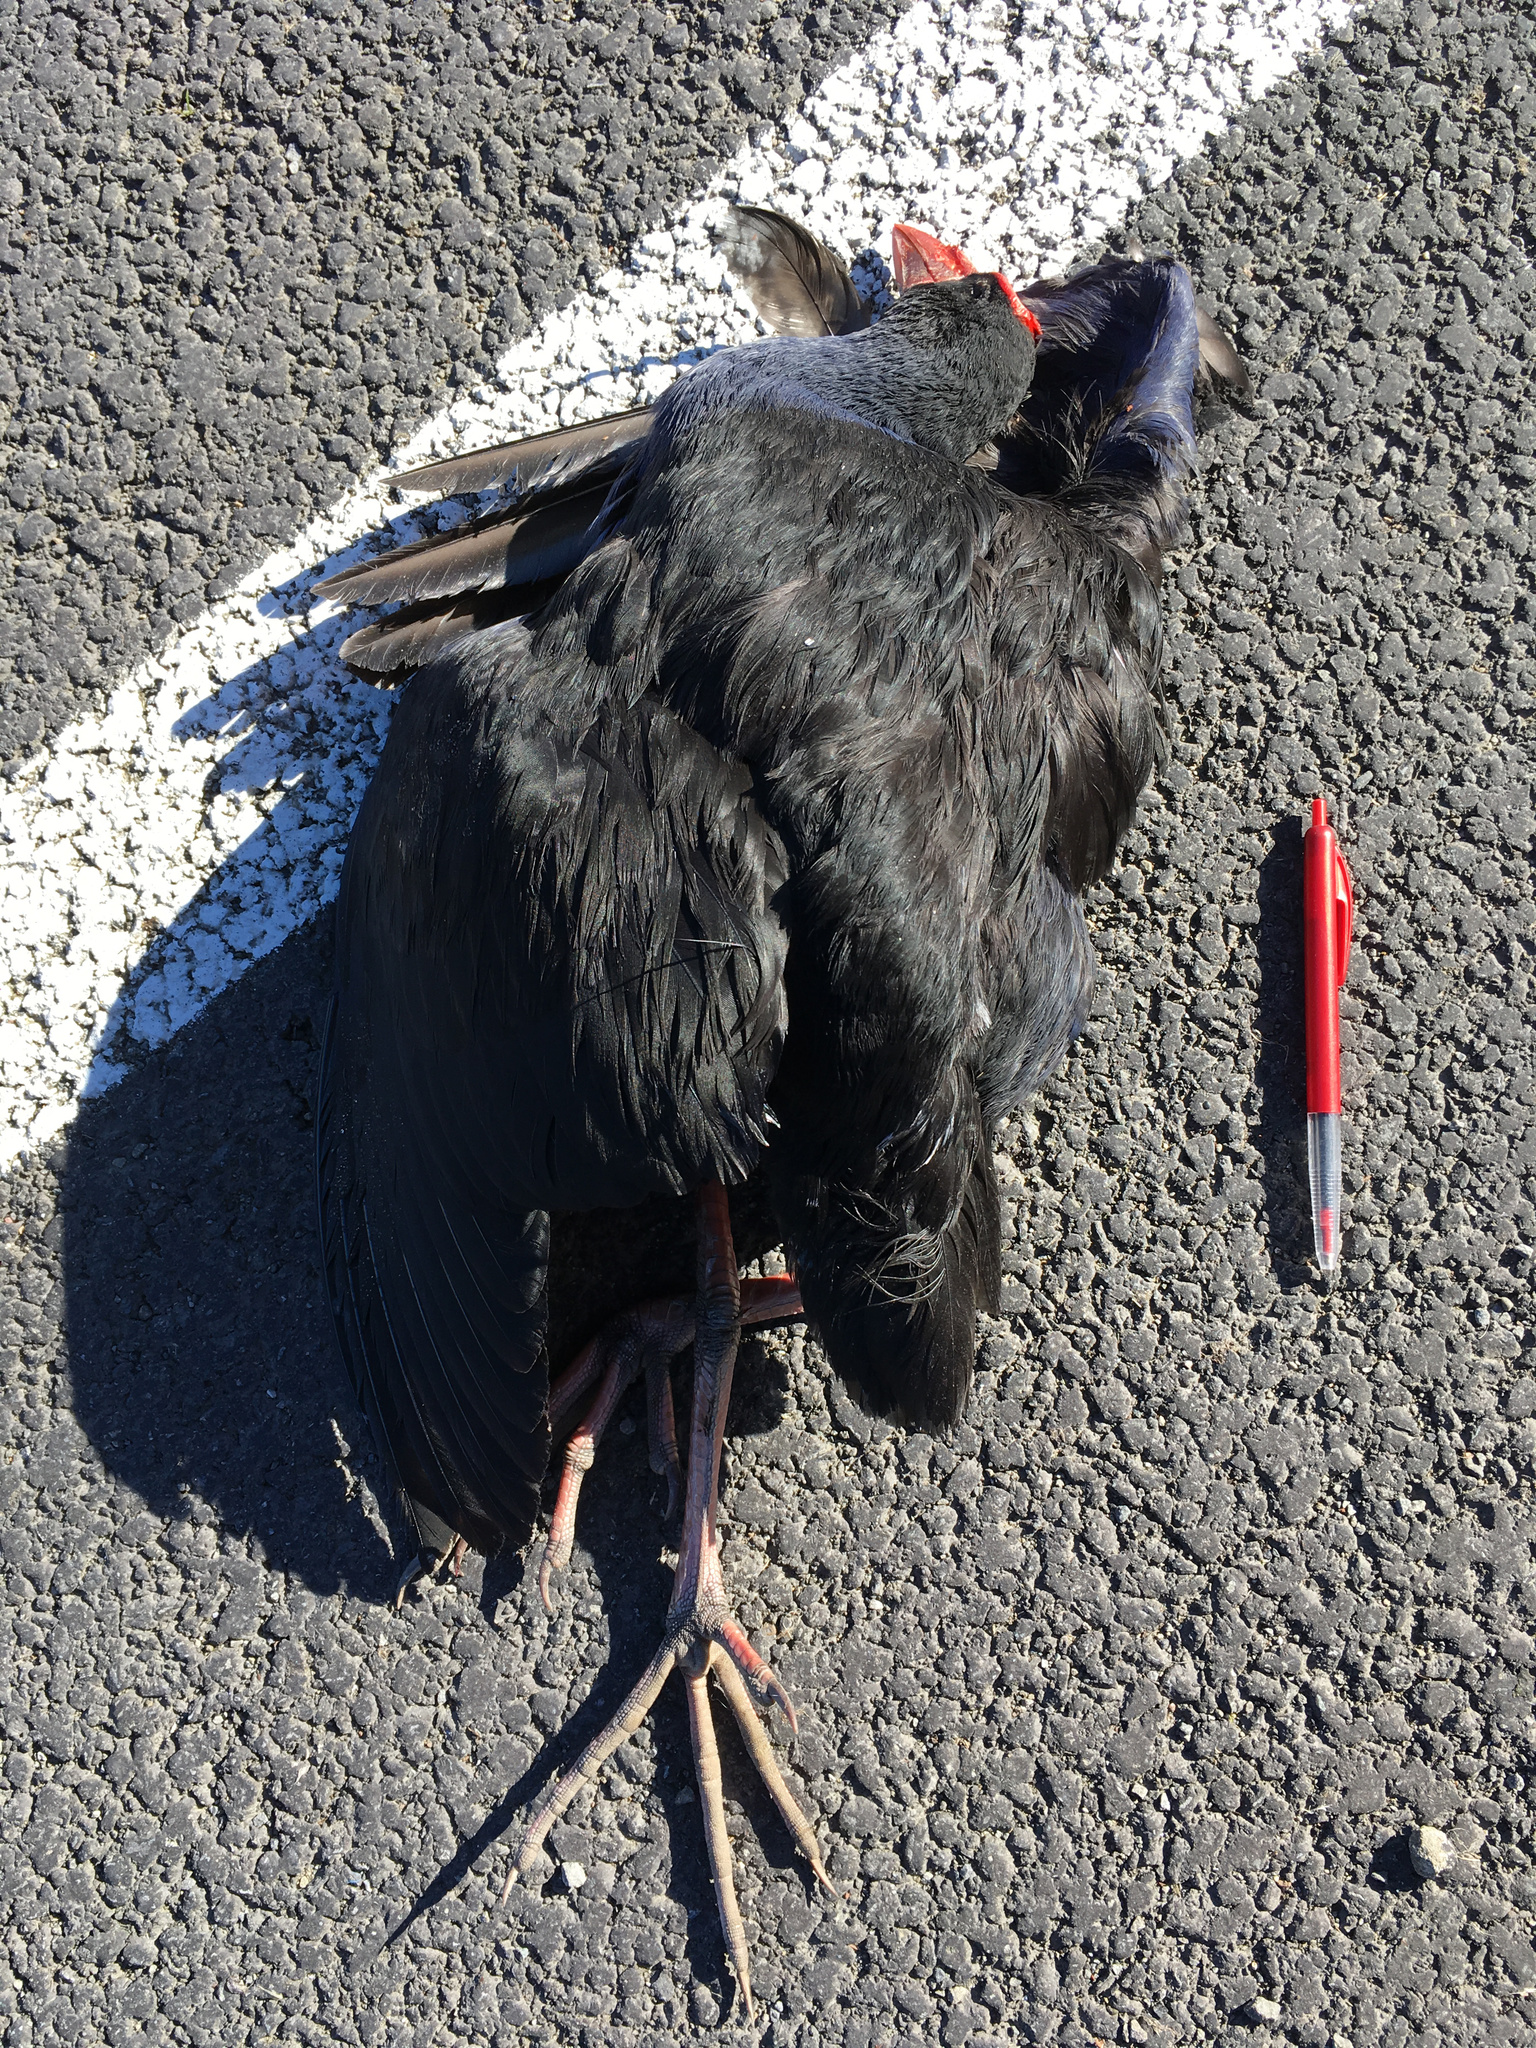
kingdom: Animalia
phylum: Chordata
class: Aves
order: Gruiformes
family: Rallidae
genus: Porphyrio
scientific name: Porphyrio melanotus
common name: Australasian swamphen
